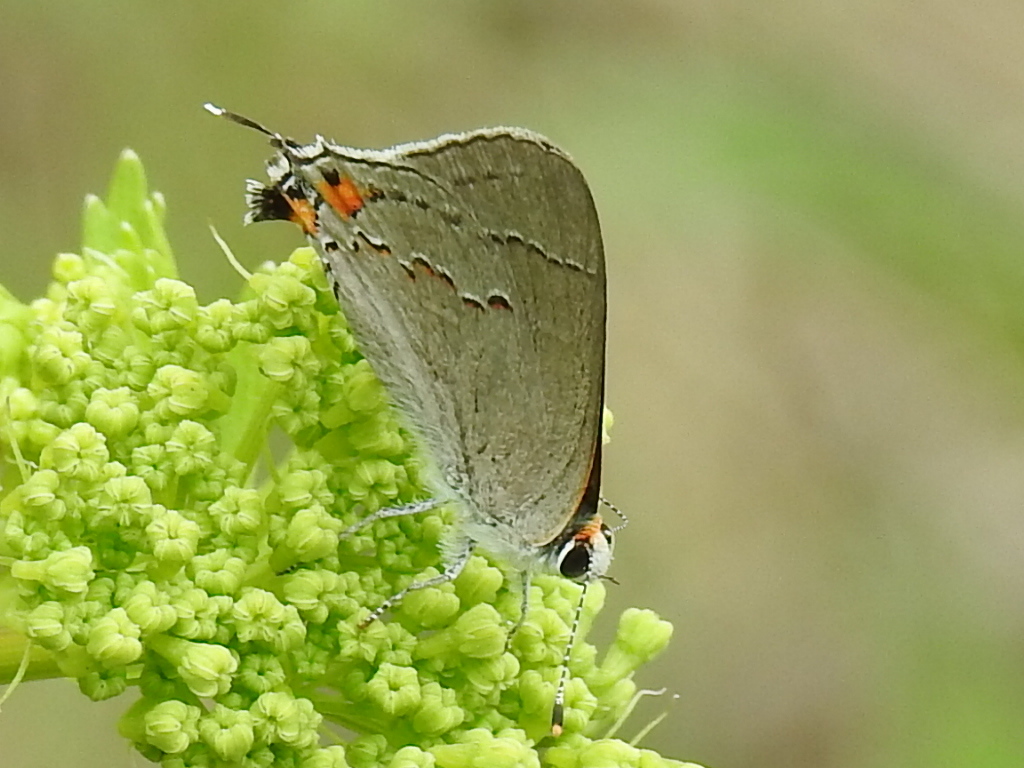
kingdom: Animalia
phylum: Arthropoda
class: Insecta
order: Lepidoptera
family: Lycaenidae
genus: Strymon
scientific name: Strymon melinus
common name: Gray hairstreak
